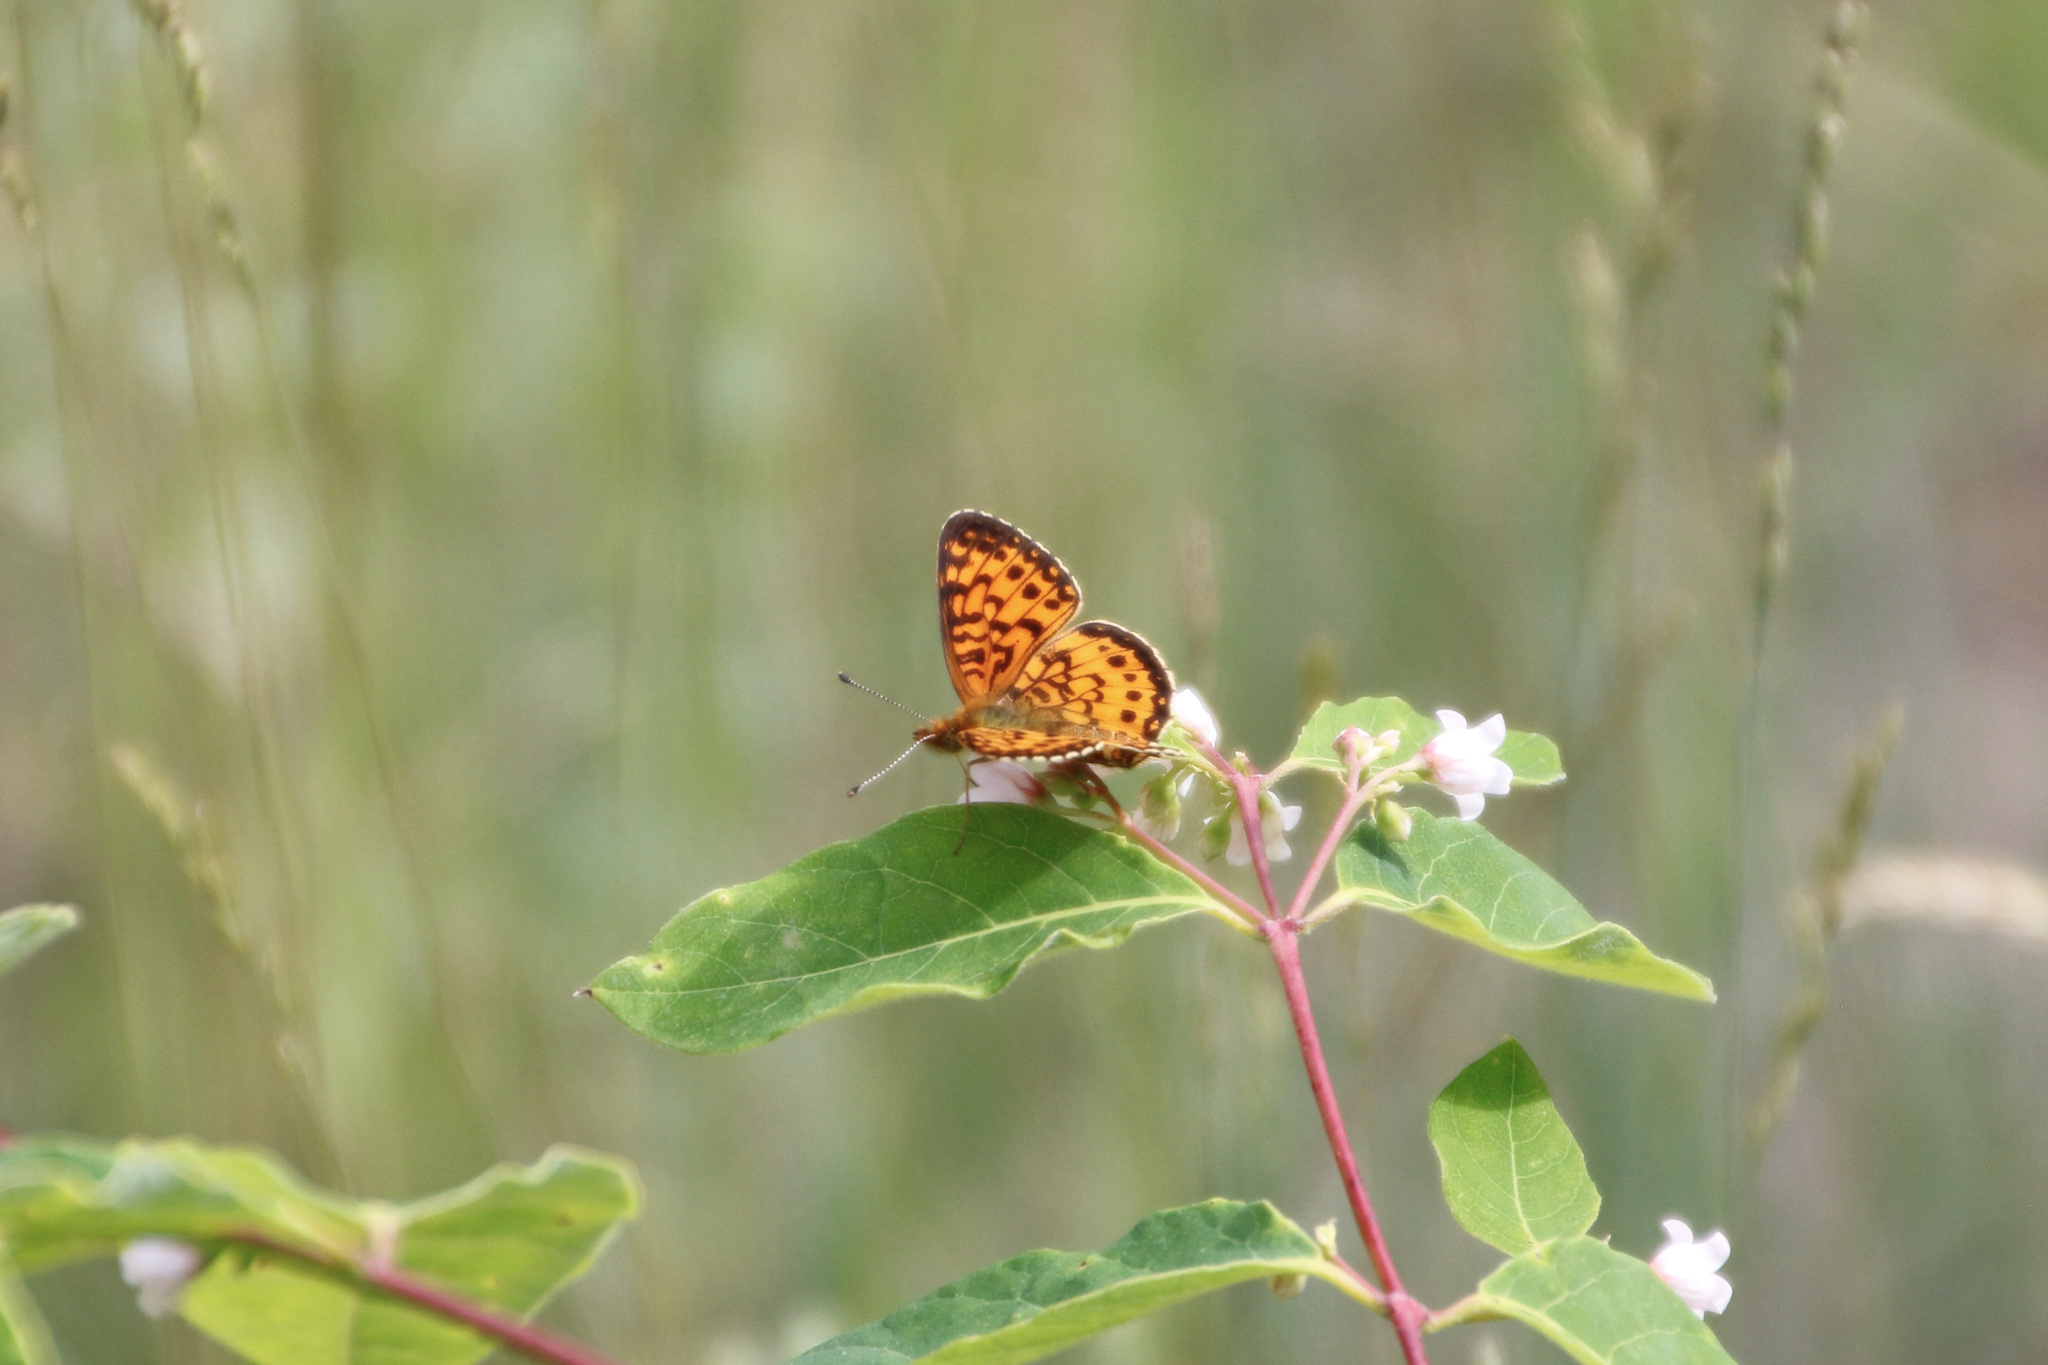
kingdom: Animalia
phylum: Arthropoda
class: Insecta
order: Lepidoptera
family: Nymphalidae
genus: Boloria
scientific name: Boloria
